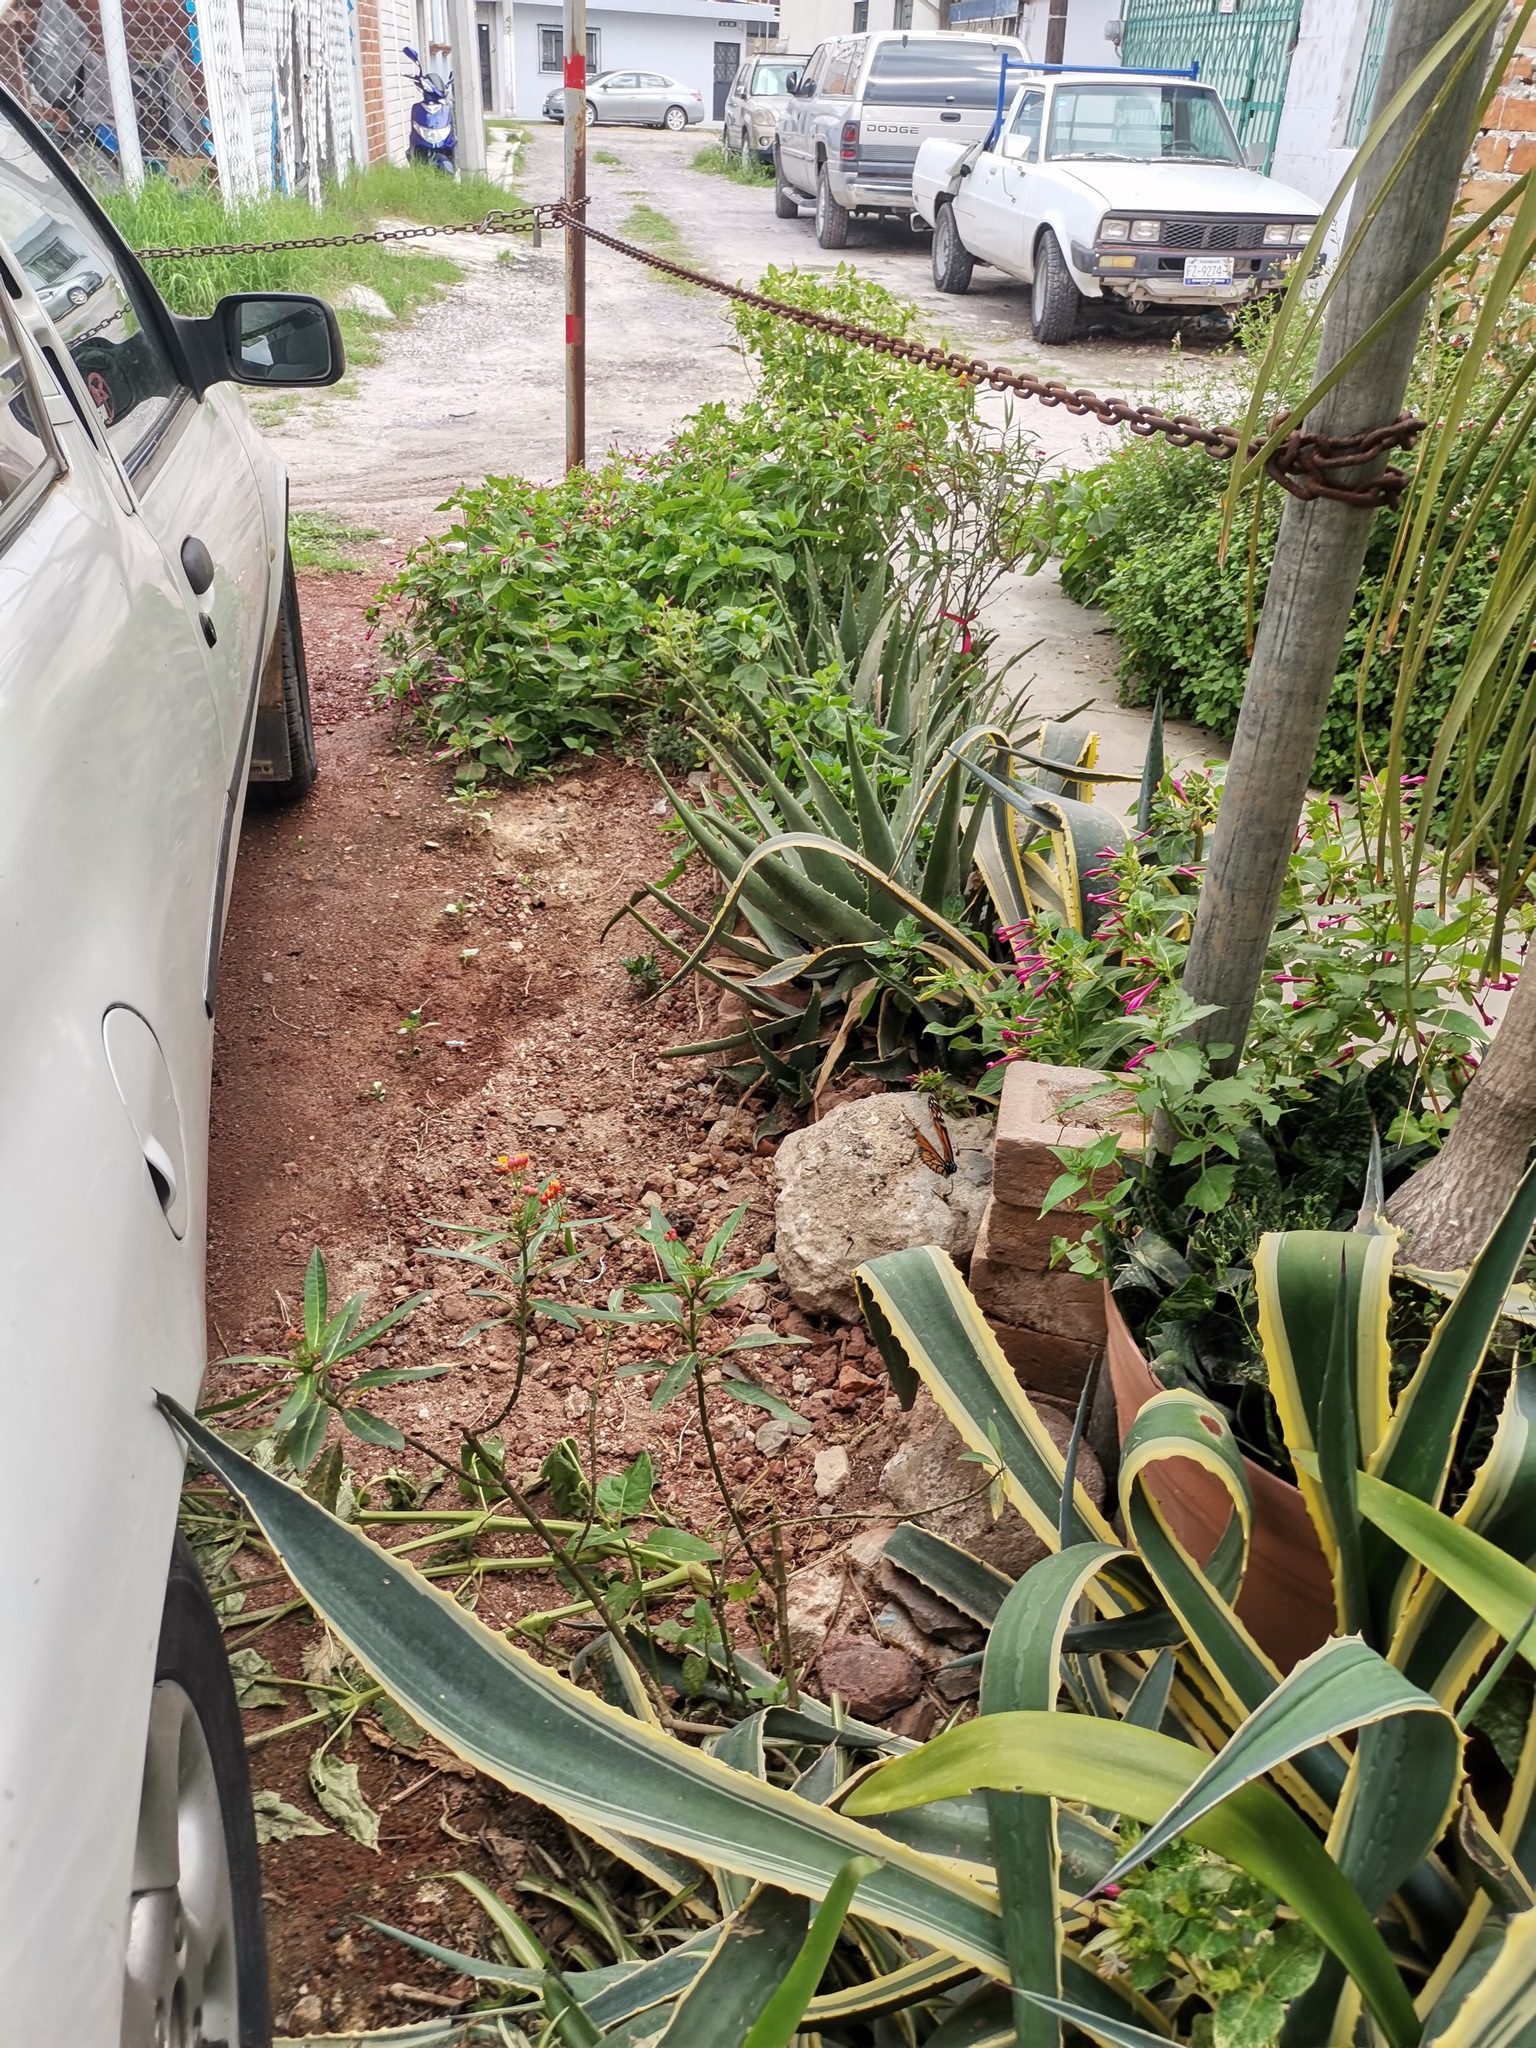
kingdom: Animalia
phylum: Arthropoda
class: Insecta
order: Lepidoptera
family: Nymphalidae
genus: Danaus
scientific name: Danaus plexippus
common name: Monarch
